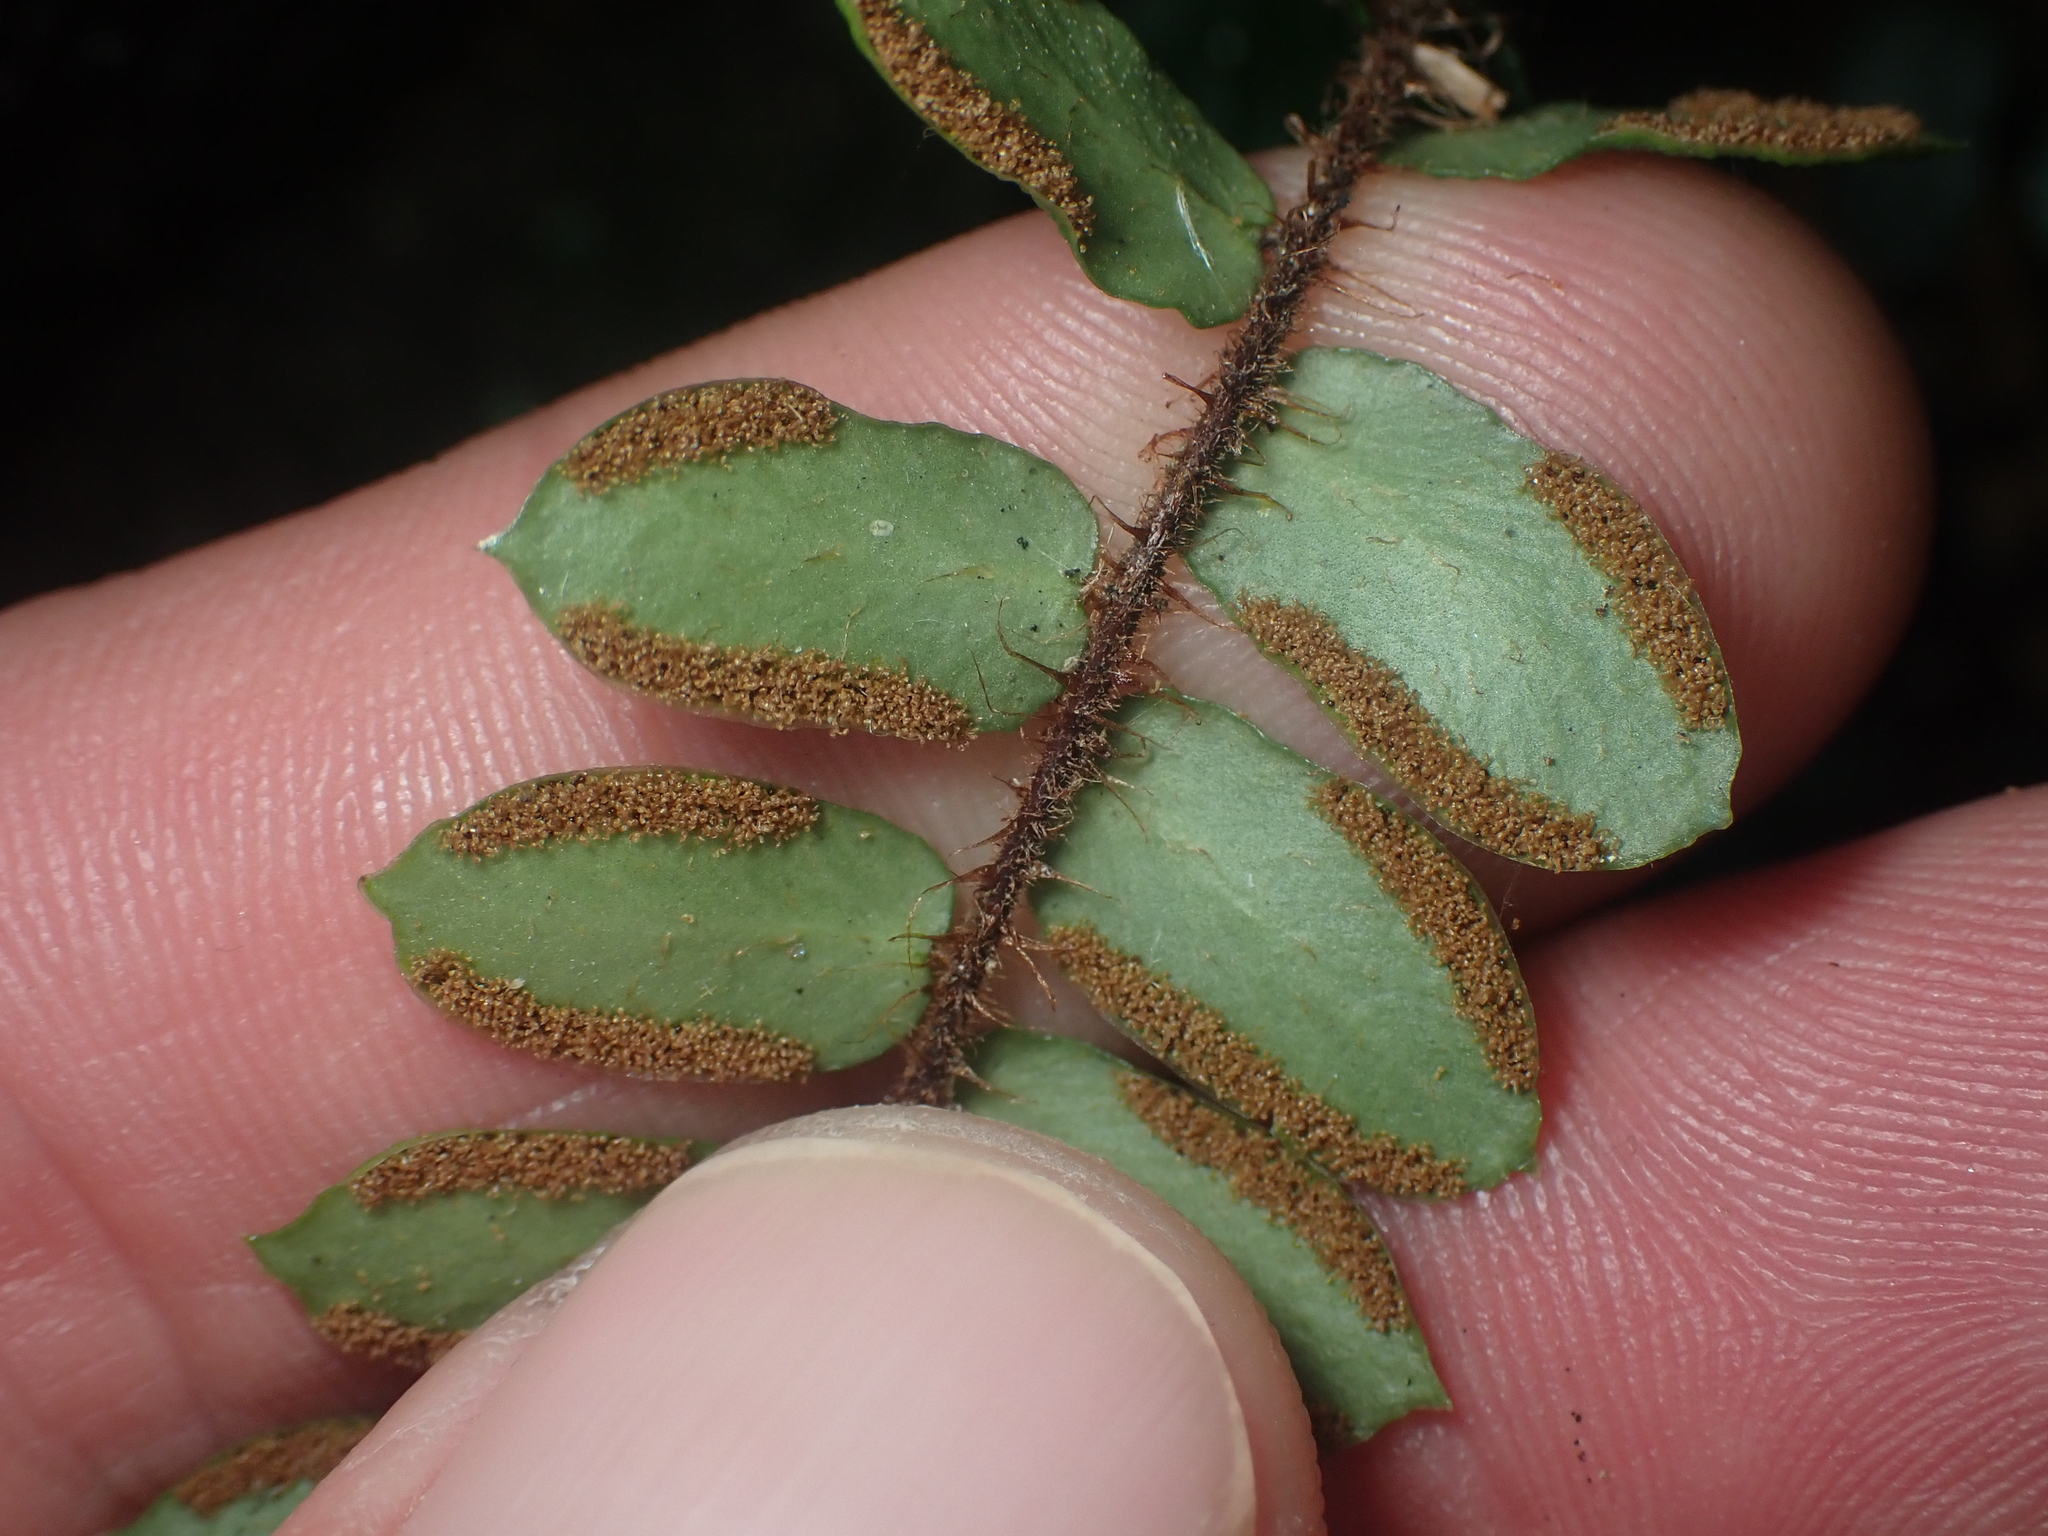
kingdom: Plantae
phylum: Tracheophyta
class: Polypodiopsida
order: Polypodiales
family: Pteridaceae
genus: Pellaea
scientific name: Pellaea rotundifolia
